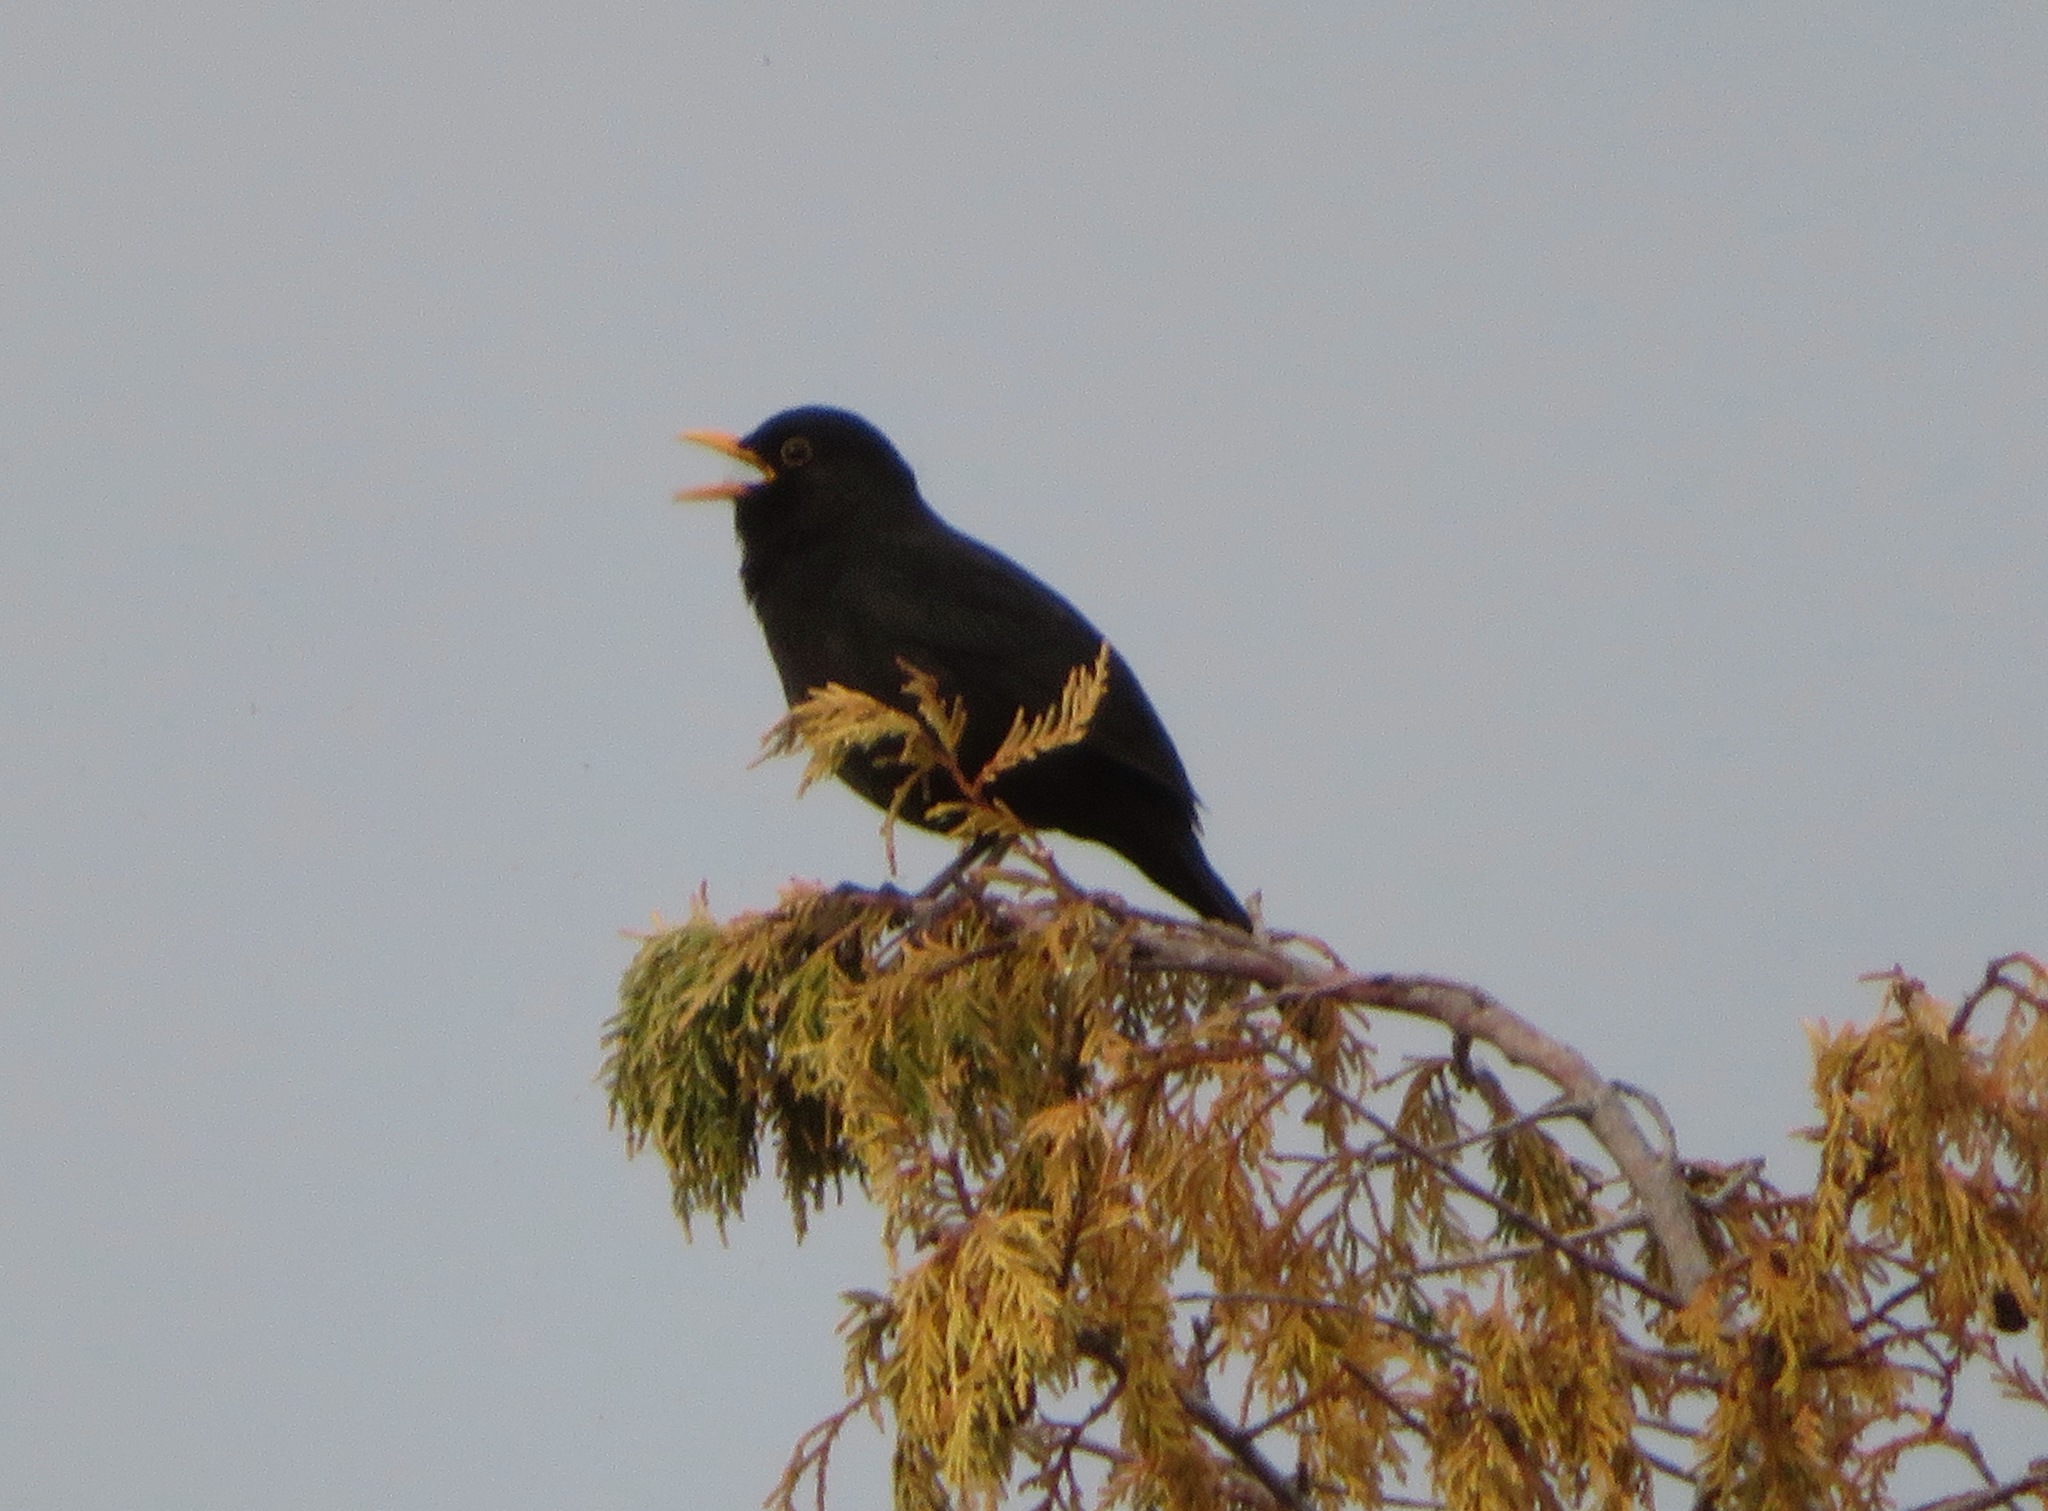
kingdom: Animalia
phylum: Chordata
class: Aves
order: Passeriformes
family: Turdidae
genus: Turdus
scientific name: Turdus merula
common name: Common blackbird
